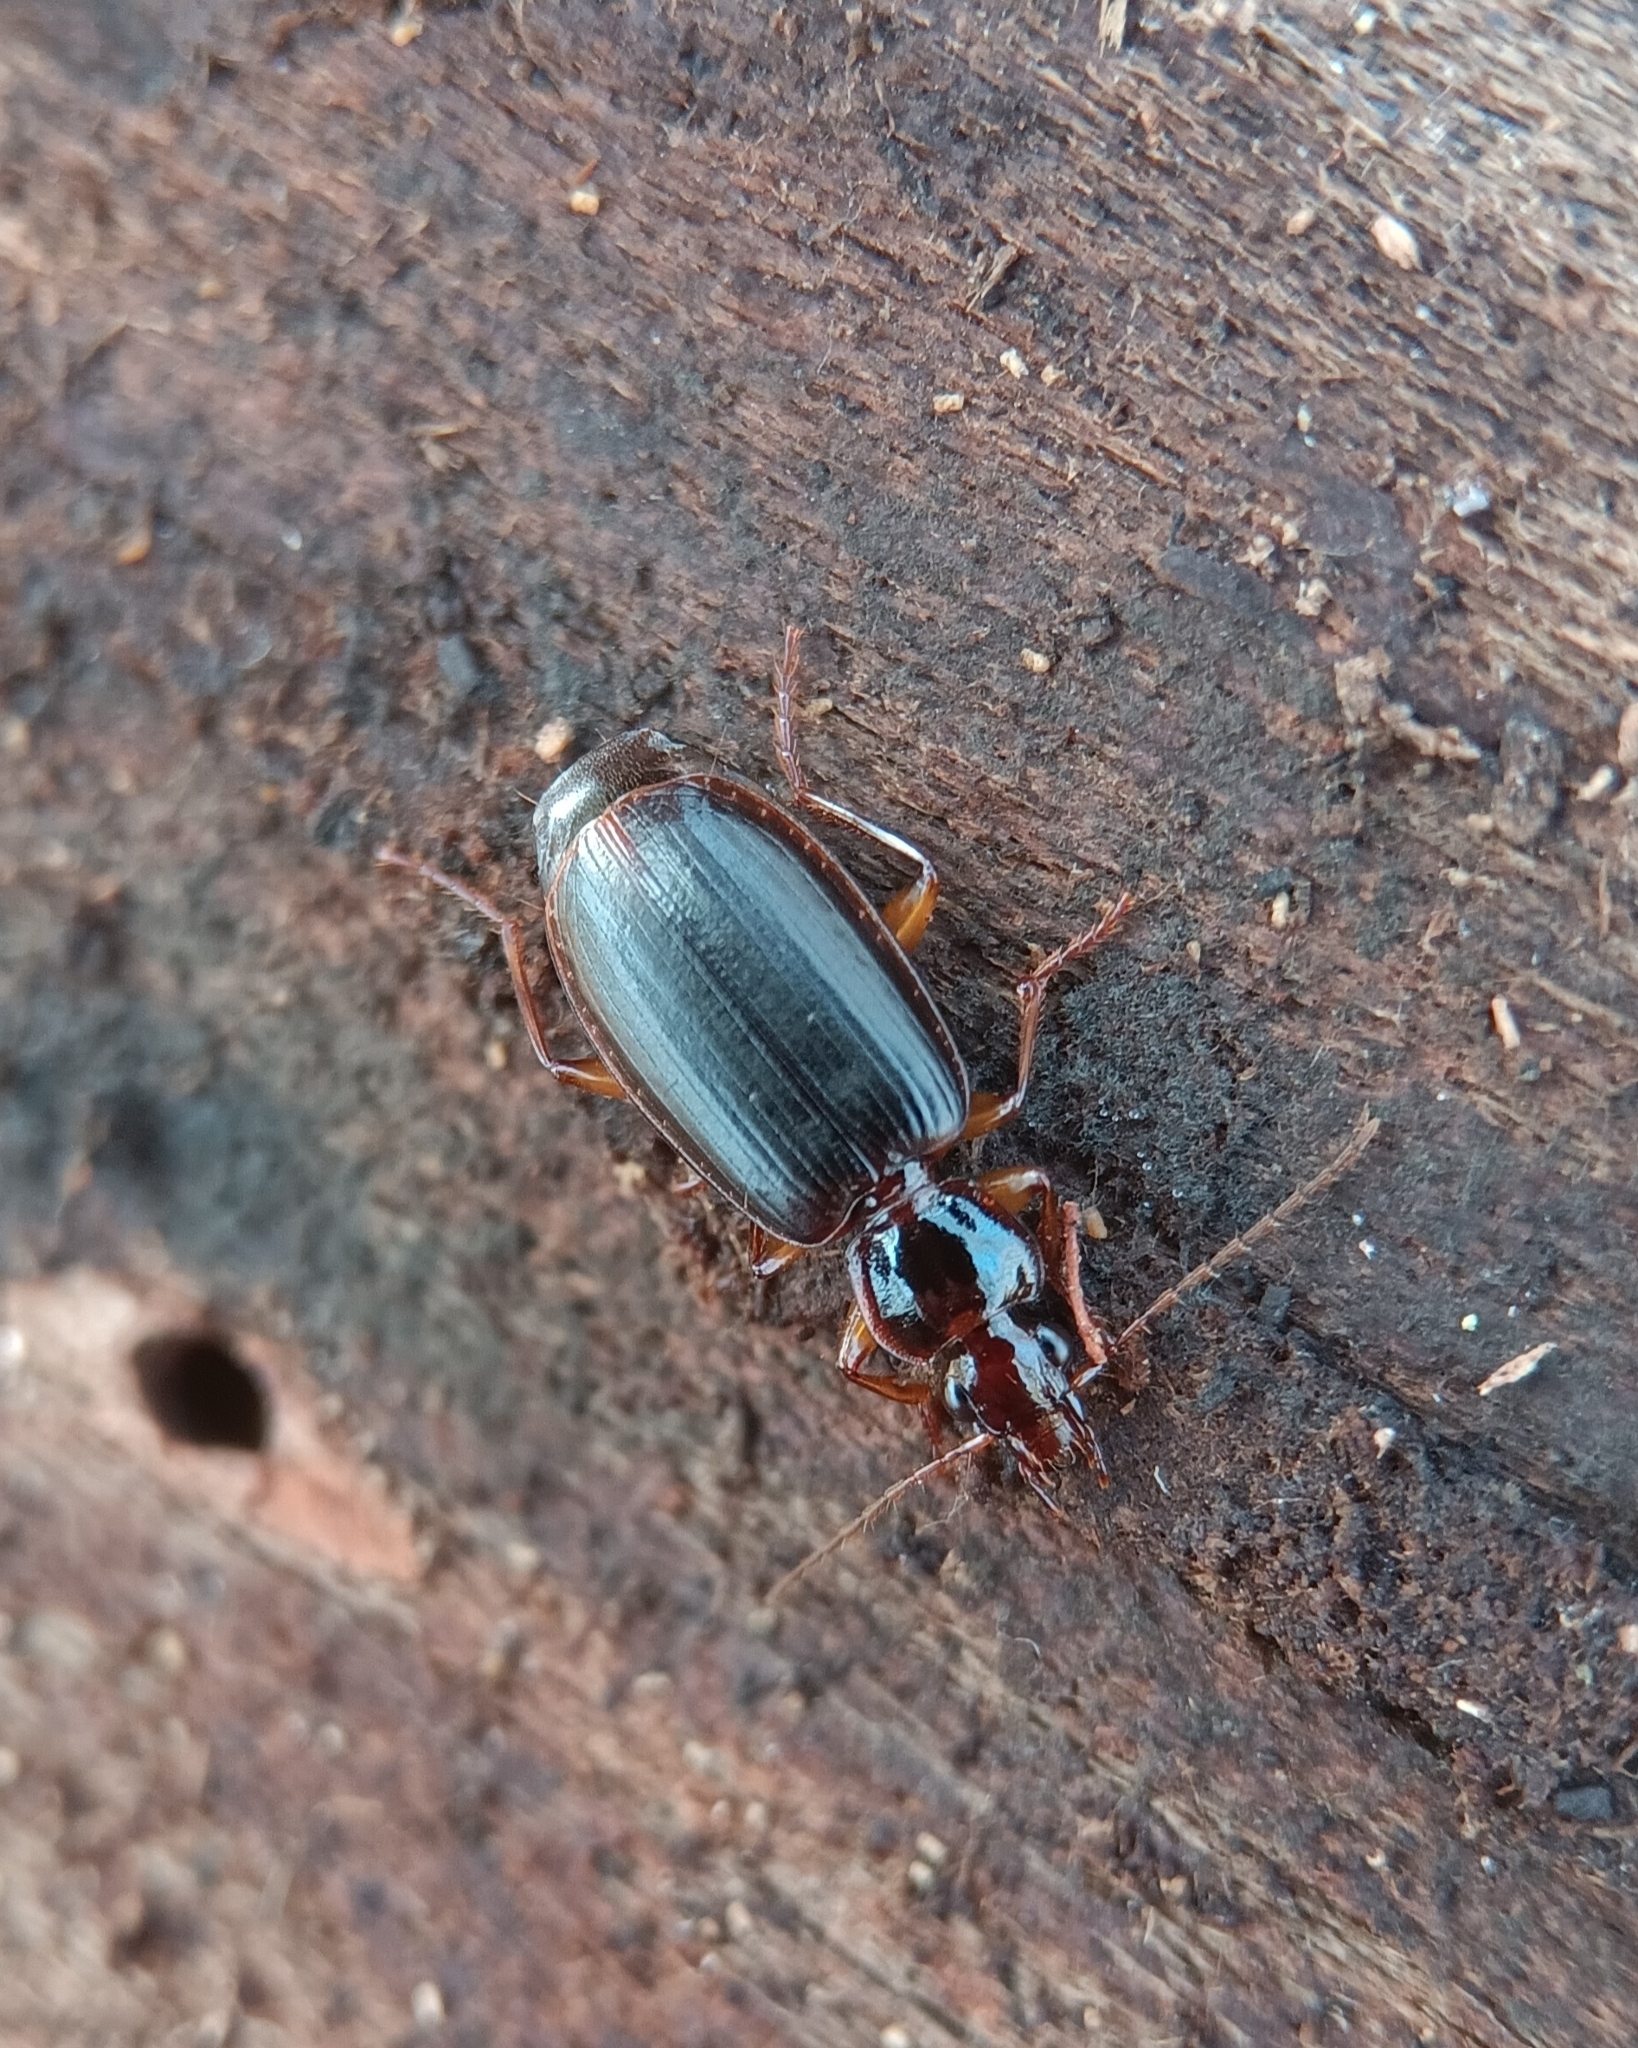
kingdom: Animalia
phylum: Arthropoda
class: Insecta
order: Coleoptera
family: Carabidae
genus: Pinacodera
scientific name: Pinacodera platicollis
